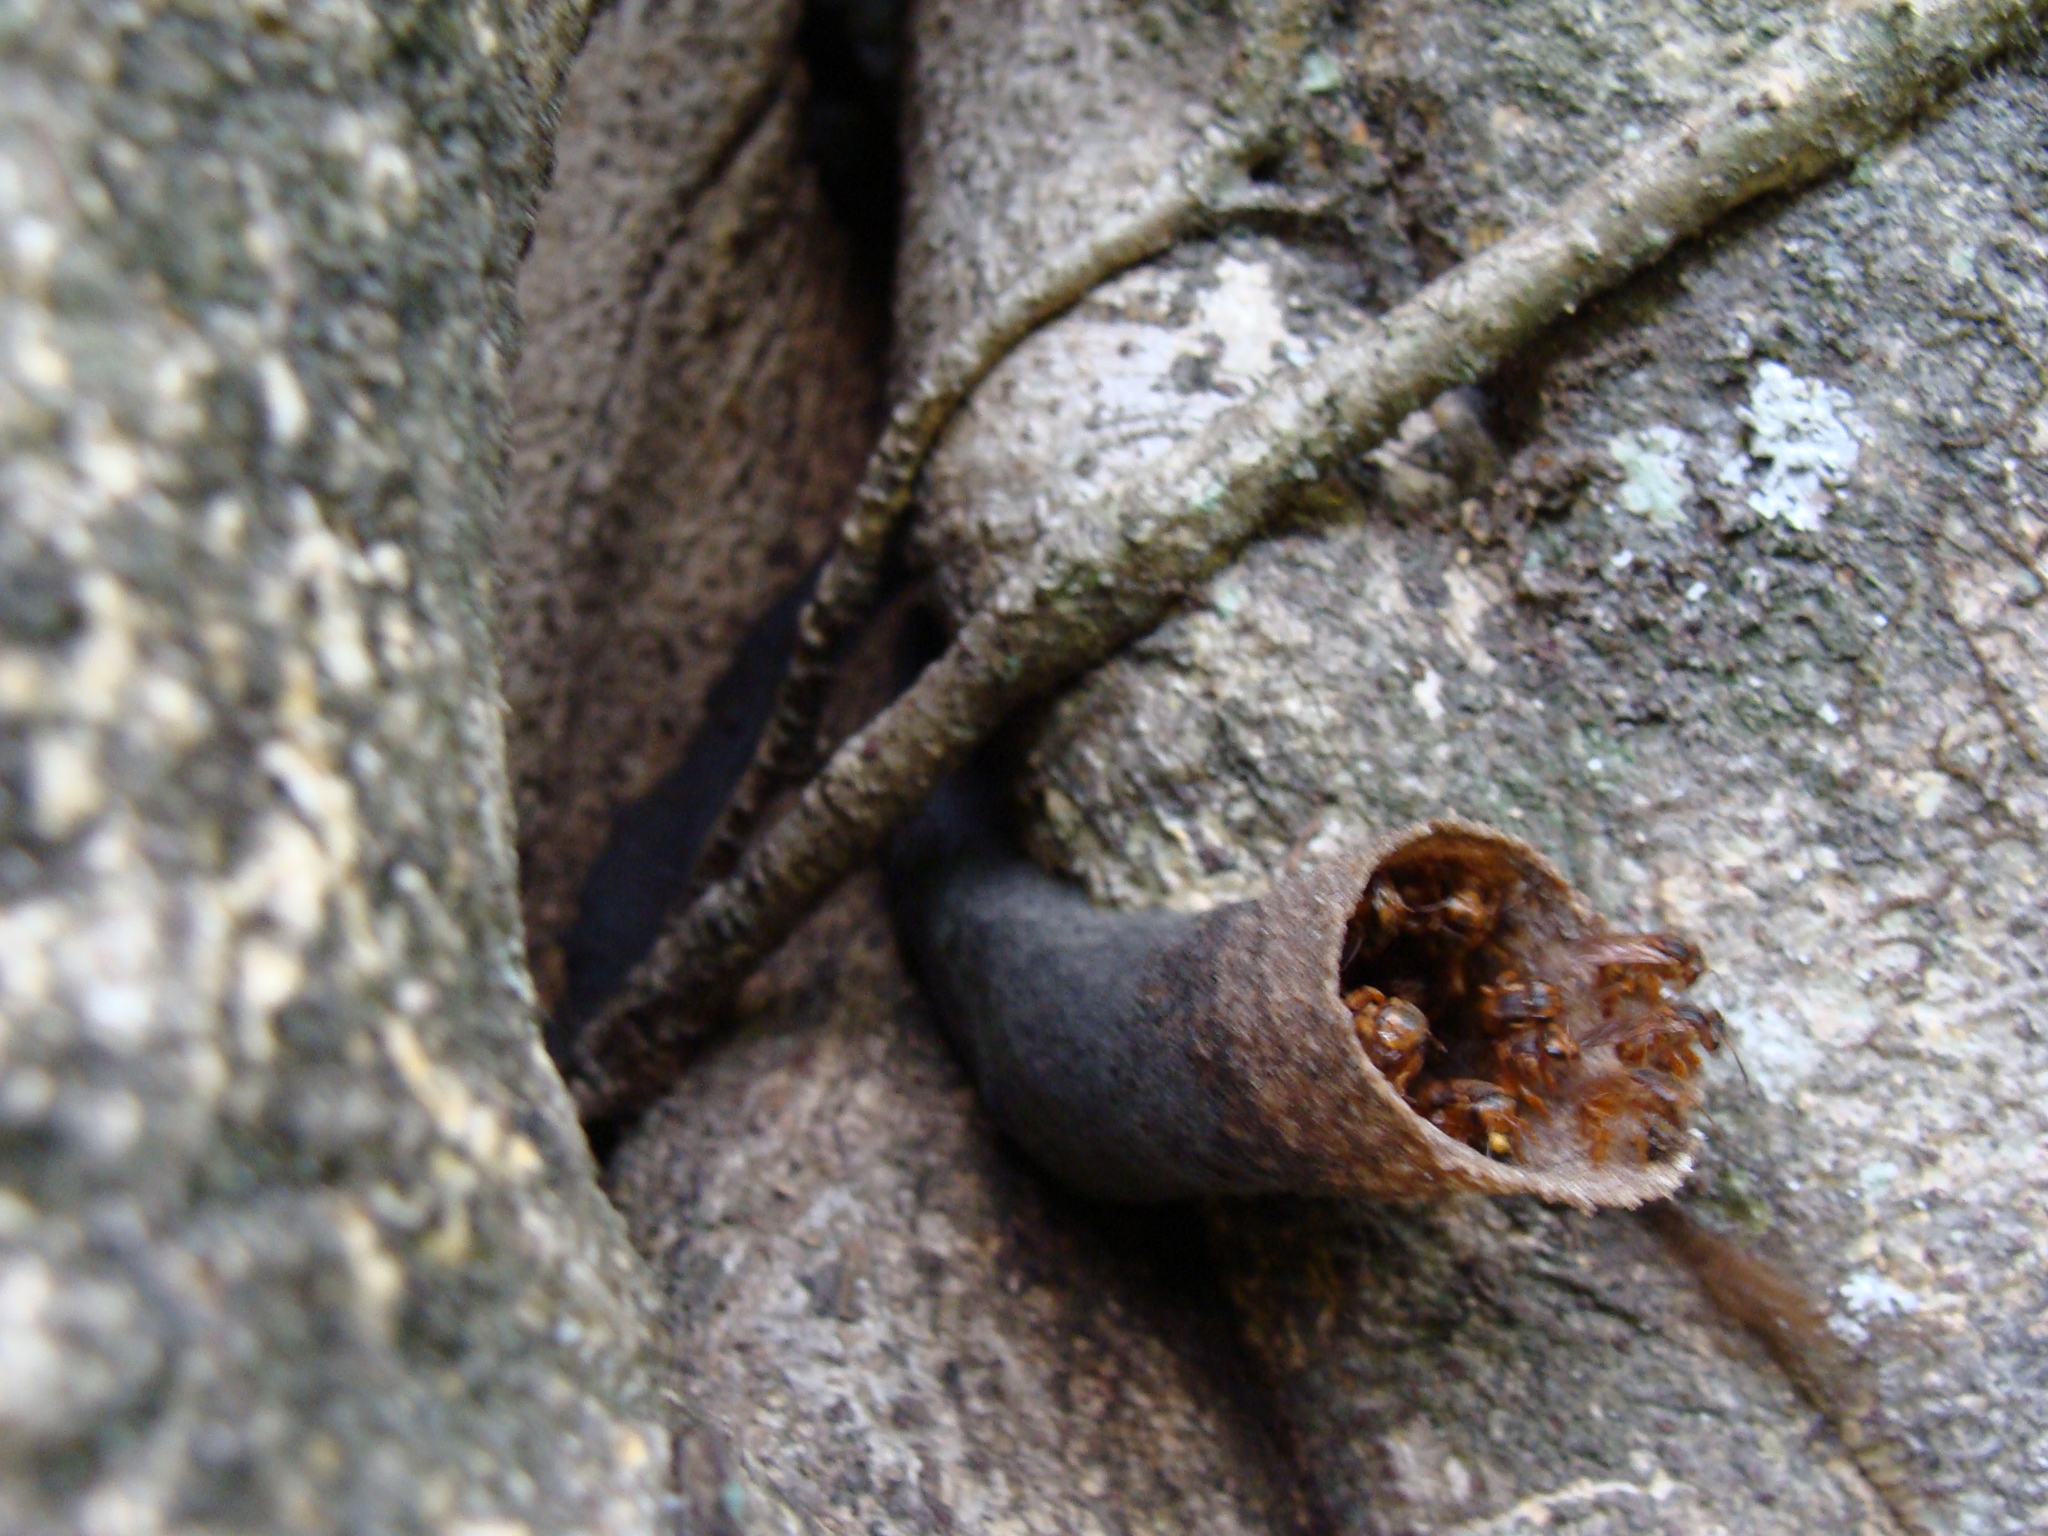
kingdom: Animalia
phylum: Arthropoda
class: Insecta
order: Hymenoptera
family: Apidae
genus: Scaptotrigona
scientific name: Scaptotrigona pectoralis
